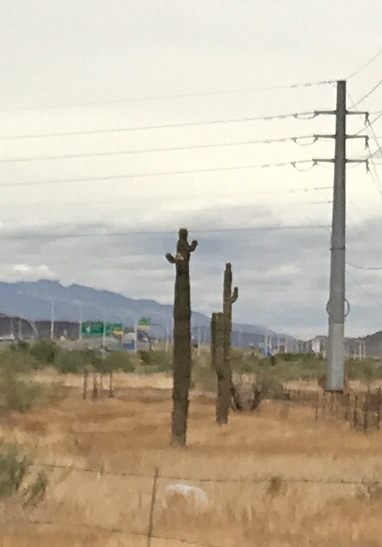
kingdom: Plantae
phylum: Tracheophyta
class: Magnoliopsida
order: Caryophyllales
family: Cactaceae
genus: Carnegiea
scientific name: Carnegiea gigantea
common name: Saguaro
